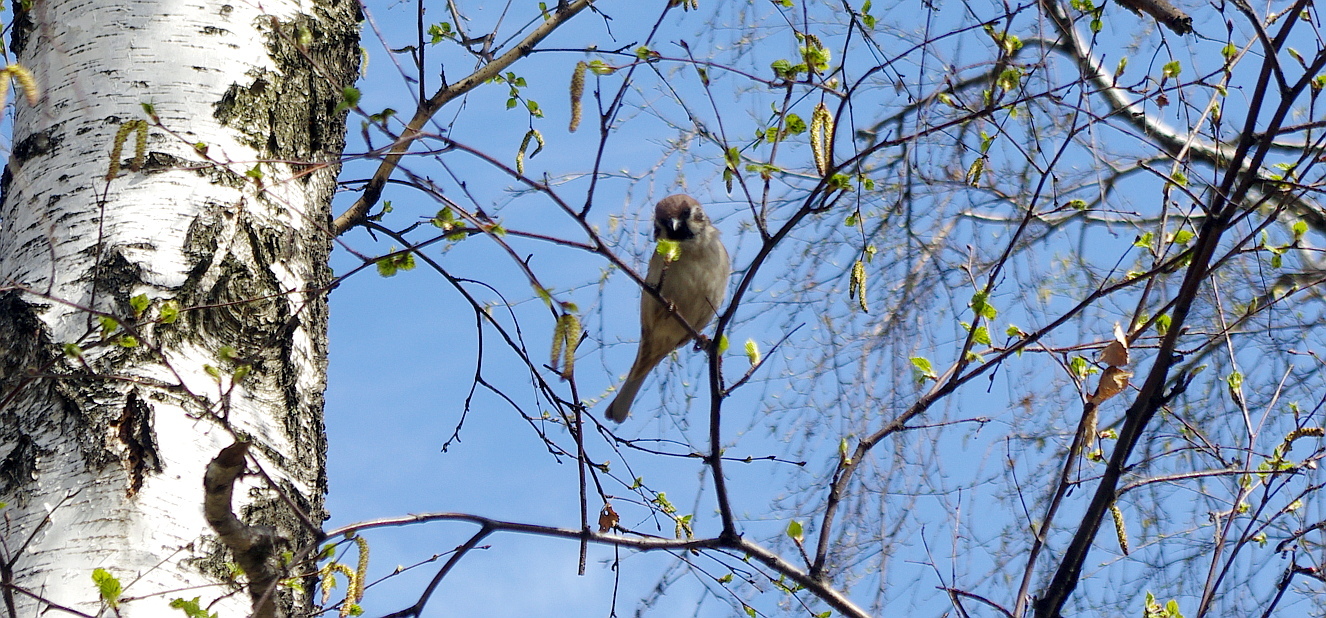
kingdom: Animalia
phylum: Chordata
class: Aves
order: Passeriformes
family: Passeridae
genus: Passer
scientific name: Passer montanus
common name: Eurasian tree sparrow
